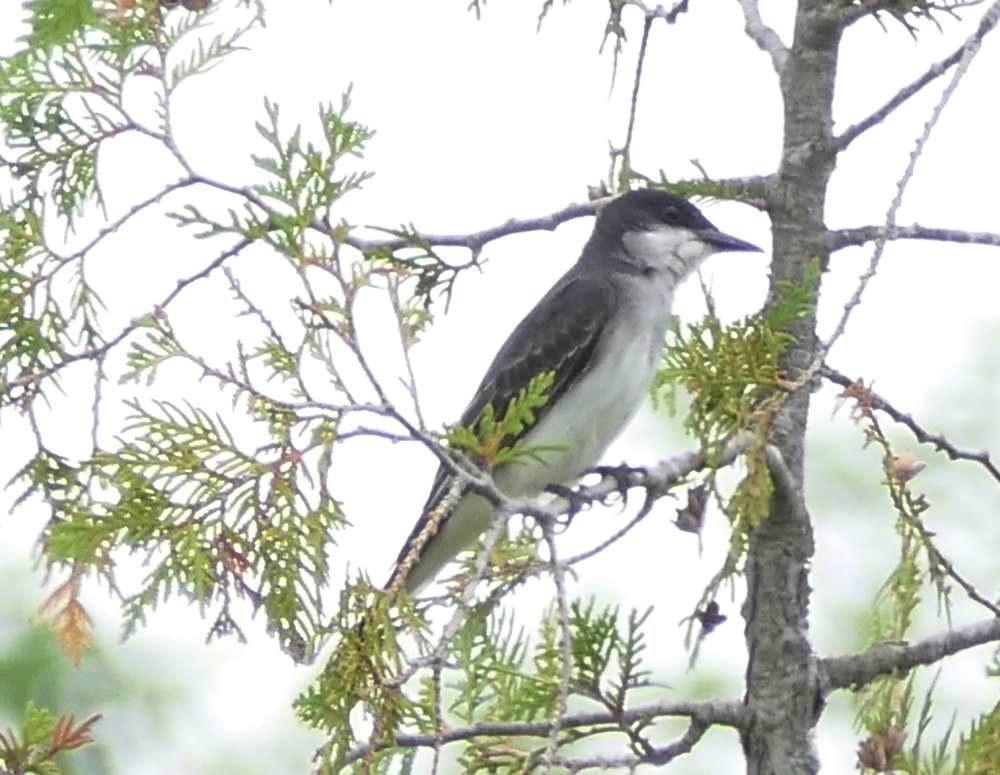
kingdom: Animalia
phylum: Chordata
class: Aves
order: Passeriformes
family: Tyrannidae
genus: Tyrannus
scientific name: Tyrannus tyrannus
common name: Eastern kingbird
